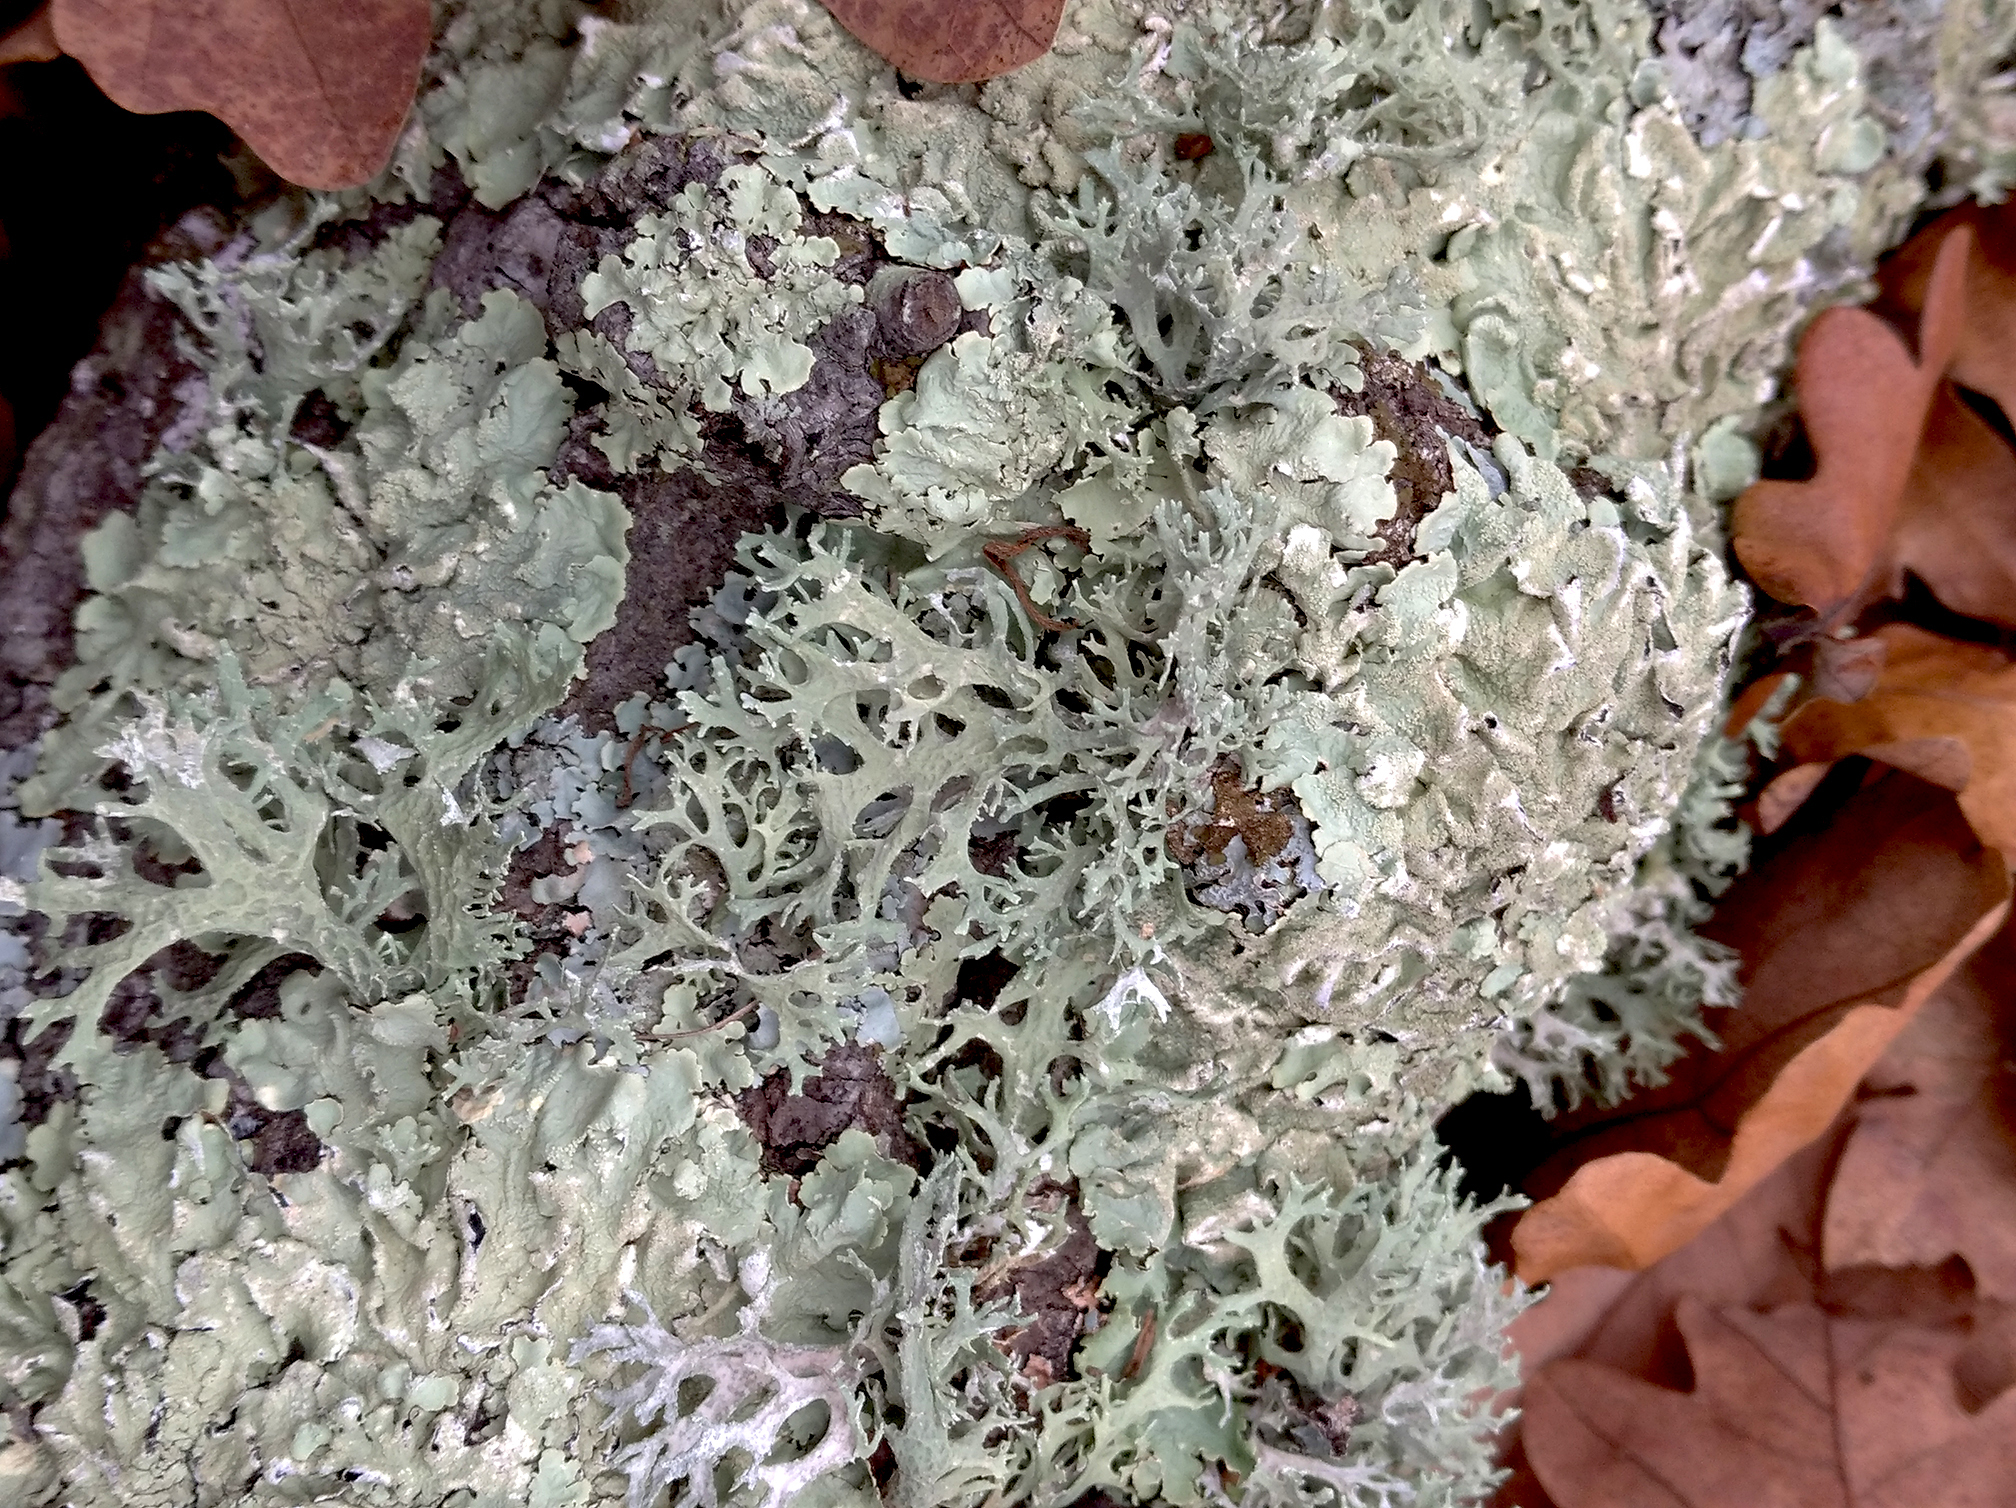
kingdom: Fungi
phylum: Ascomycota
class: Lecanoromycetes
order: Lecanorales
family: Parmeliaceae
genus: Flavoparmelia
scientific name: Flavoparmelia caperata
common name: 40-mile per hour lichen
